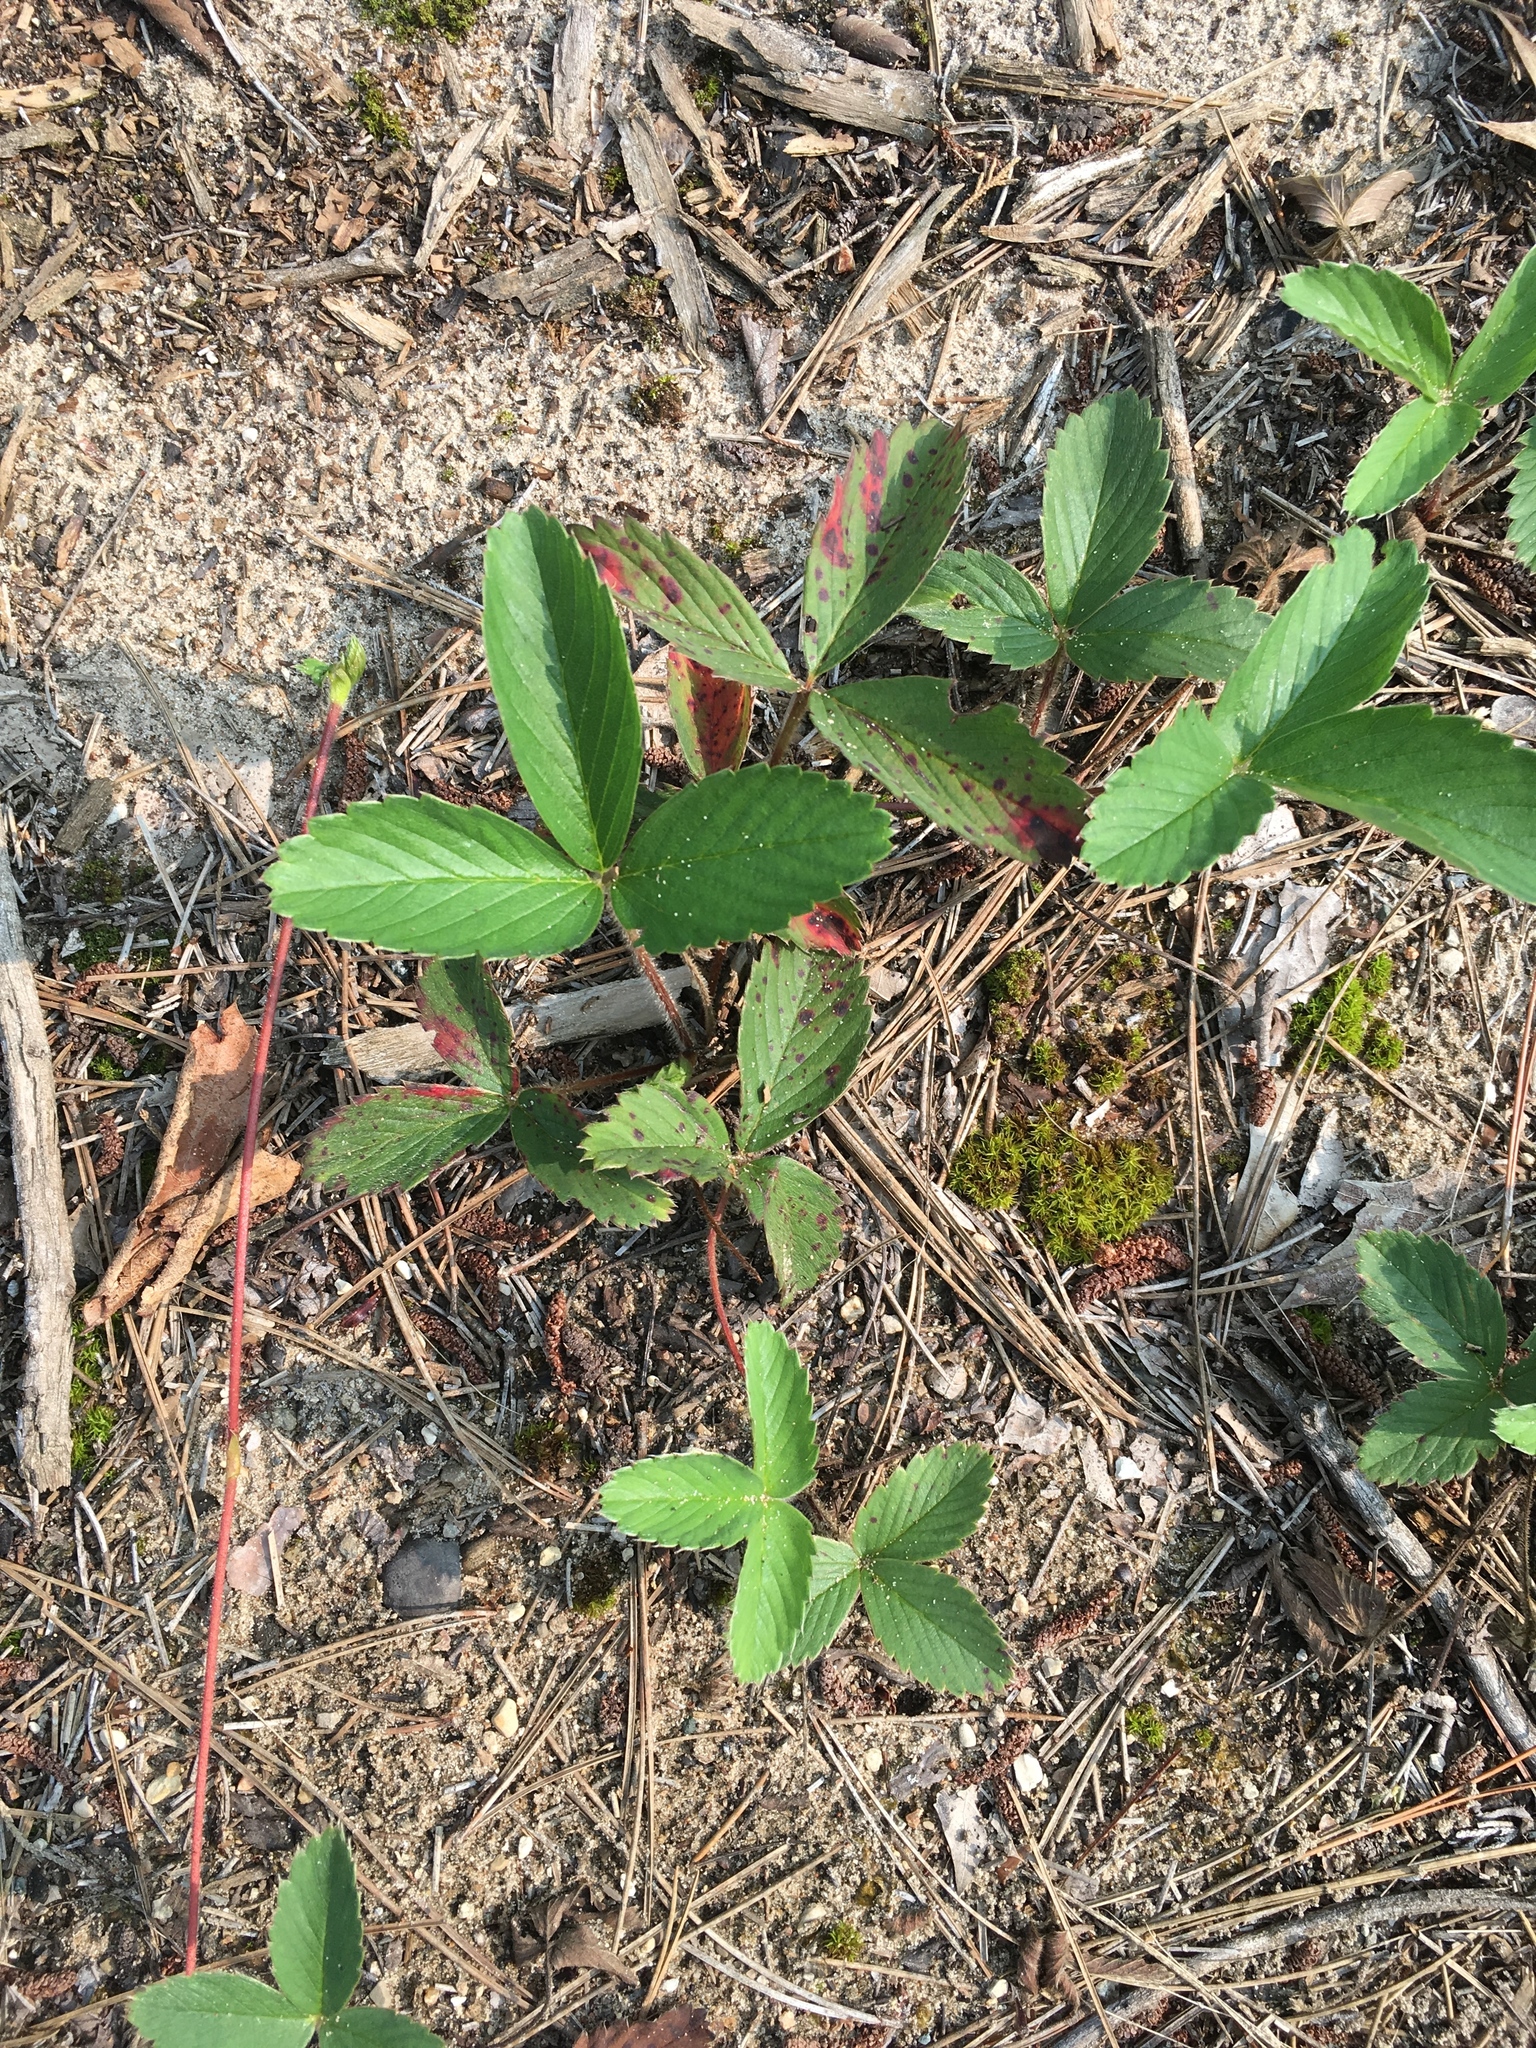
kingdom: Plantae
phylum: Tracheophyta
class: Magnoliopsida
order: Rosales
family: Rosaceae
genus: Fragaria
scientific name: Fragaria virginiana
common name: Thickleaved wild strawberry
